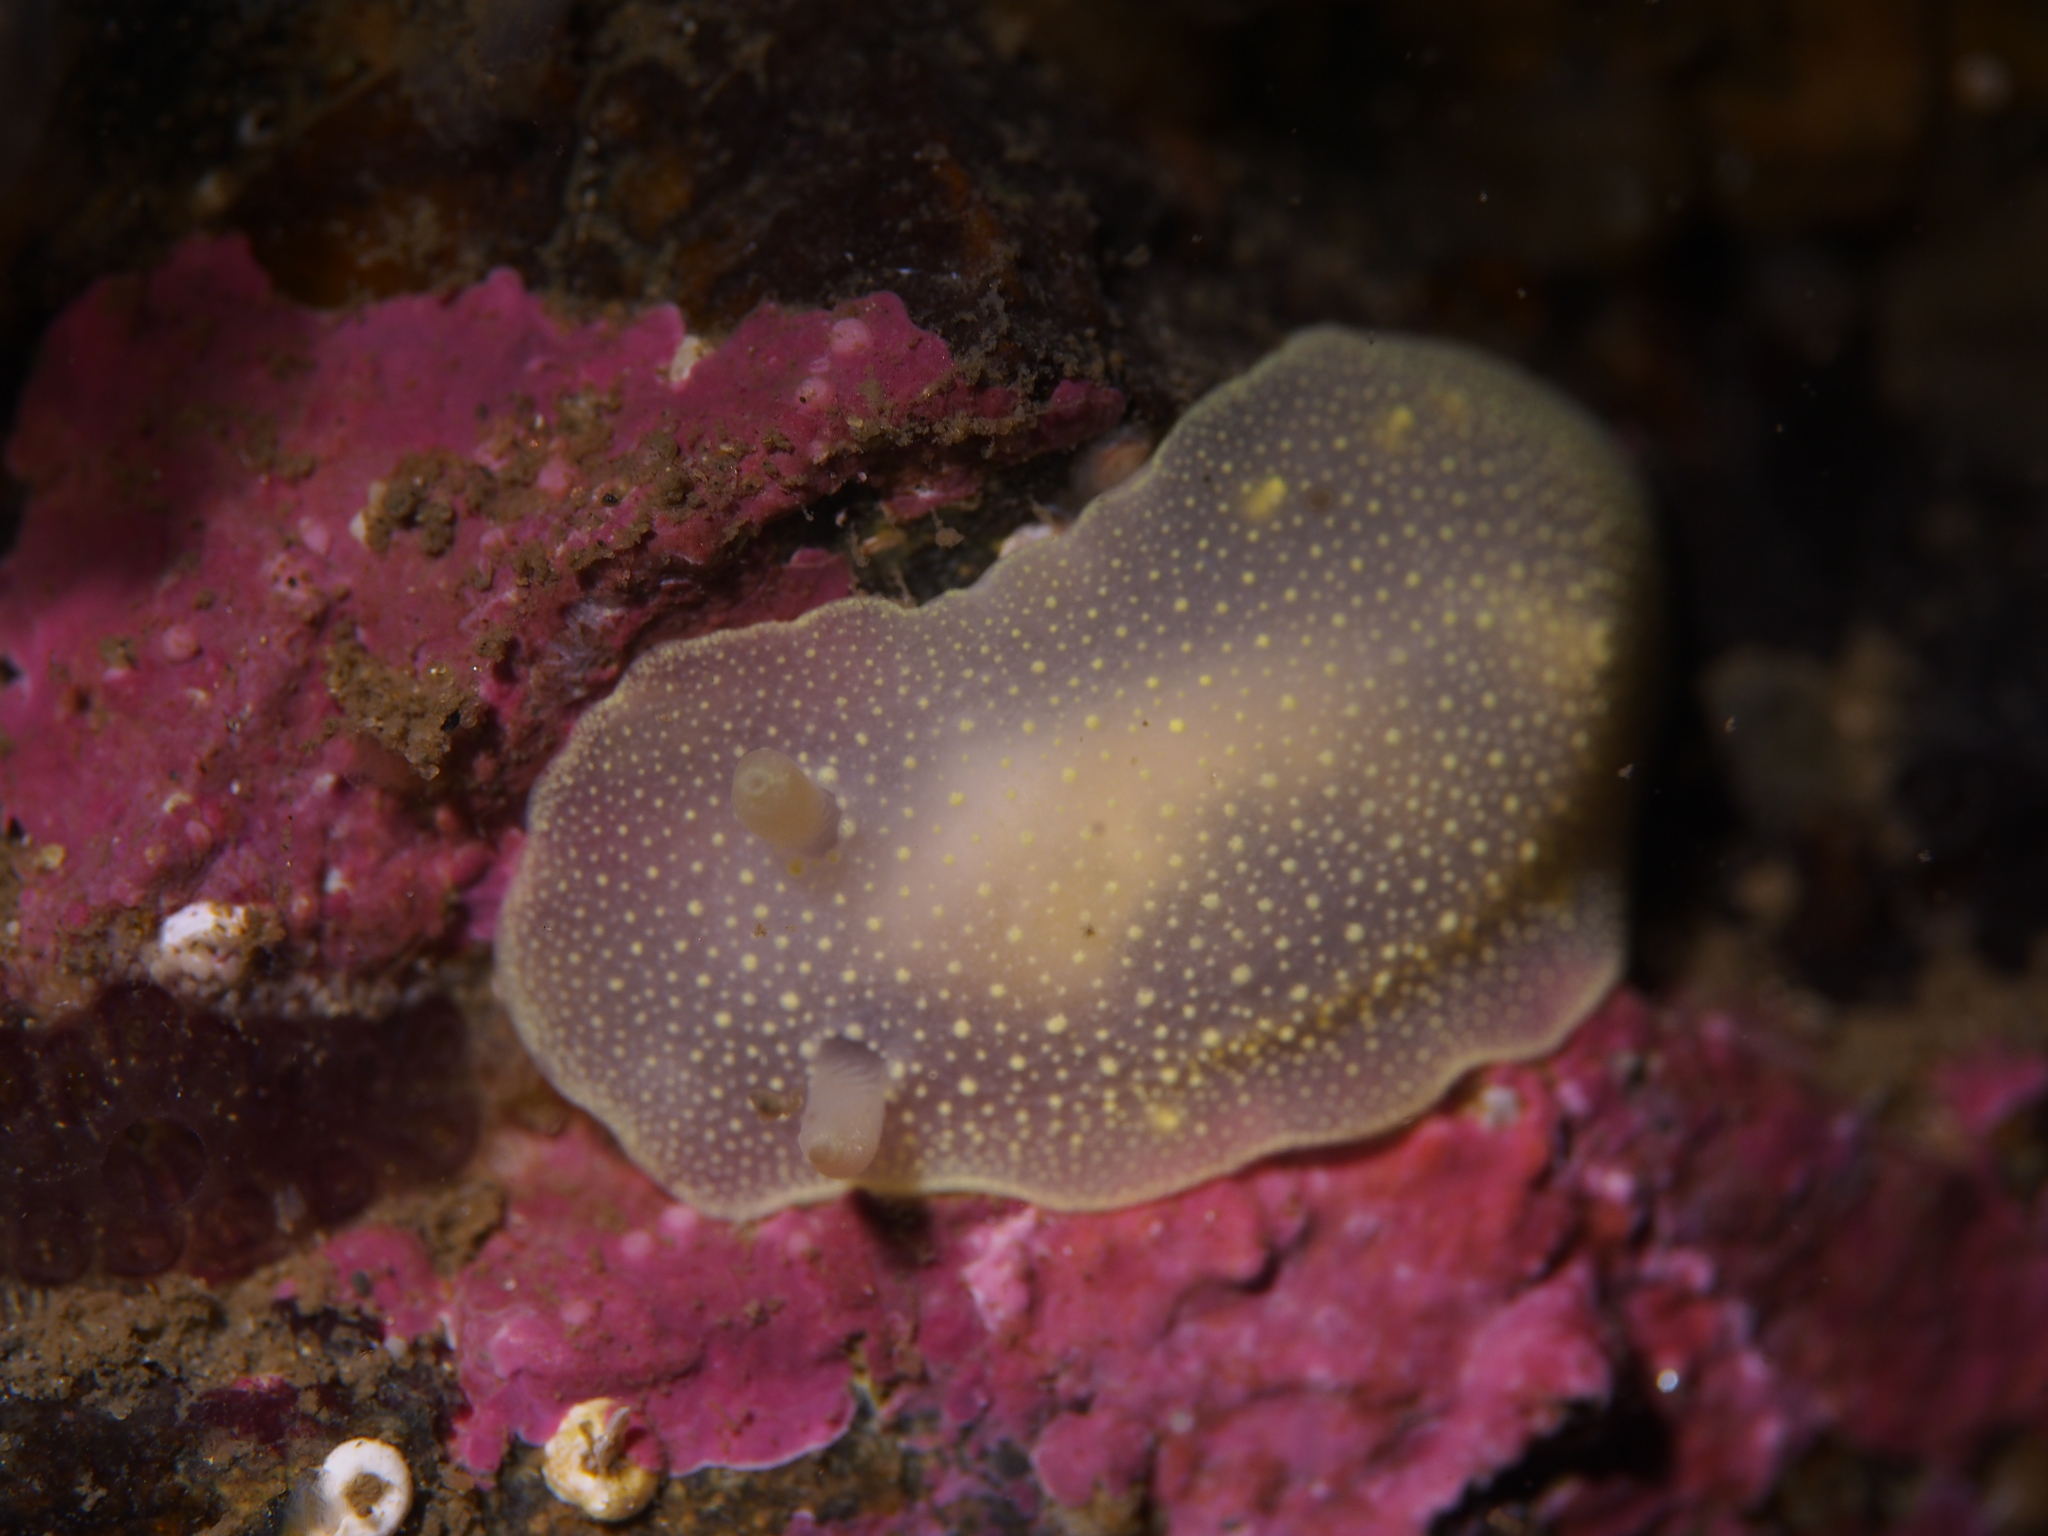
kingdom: Animalia
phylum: Mollusca
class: Gastropoda
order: Nudibranchia
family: Cadlinidae
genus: Cadlina
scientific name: Cadlina laevis
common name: White atlantic cadlina
